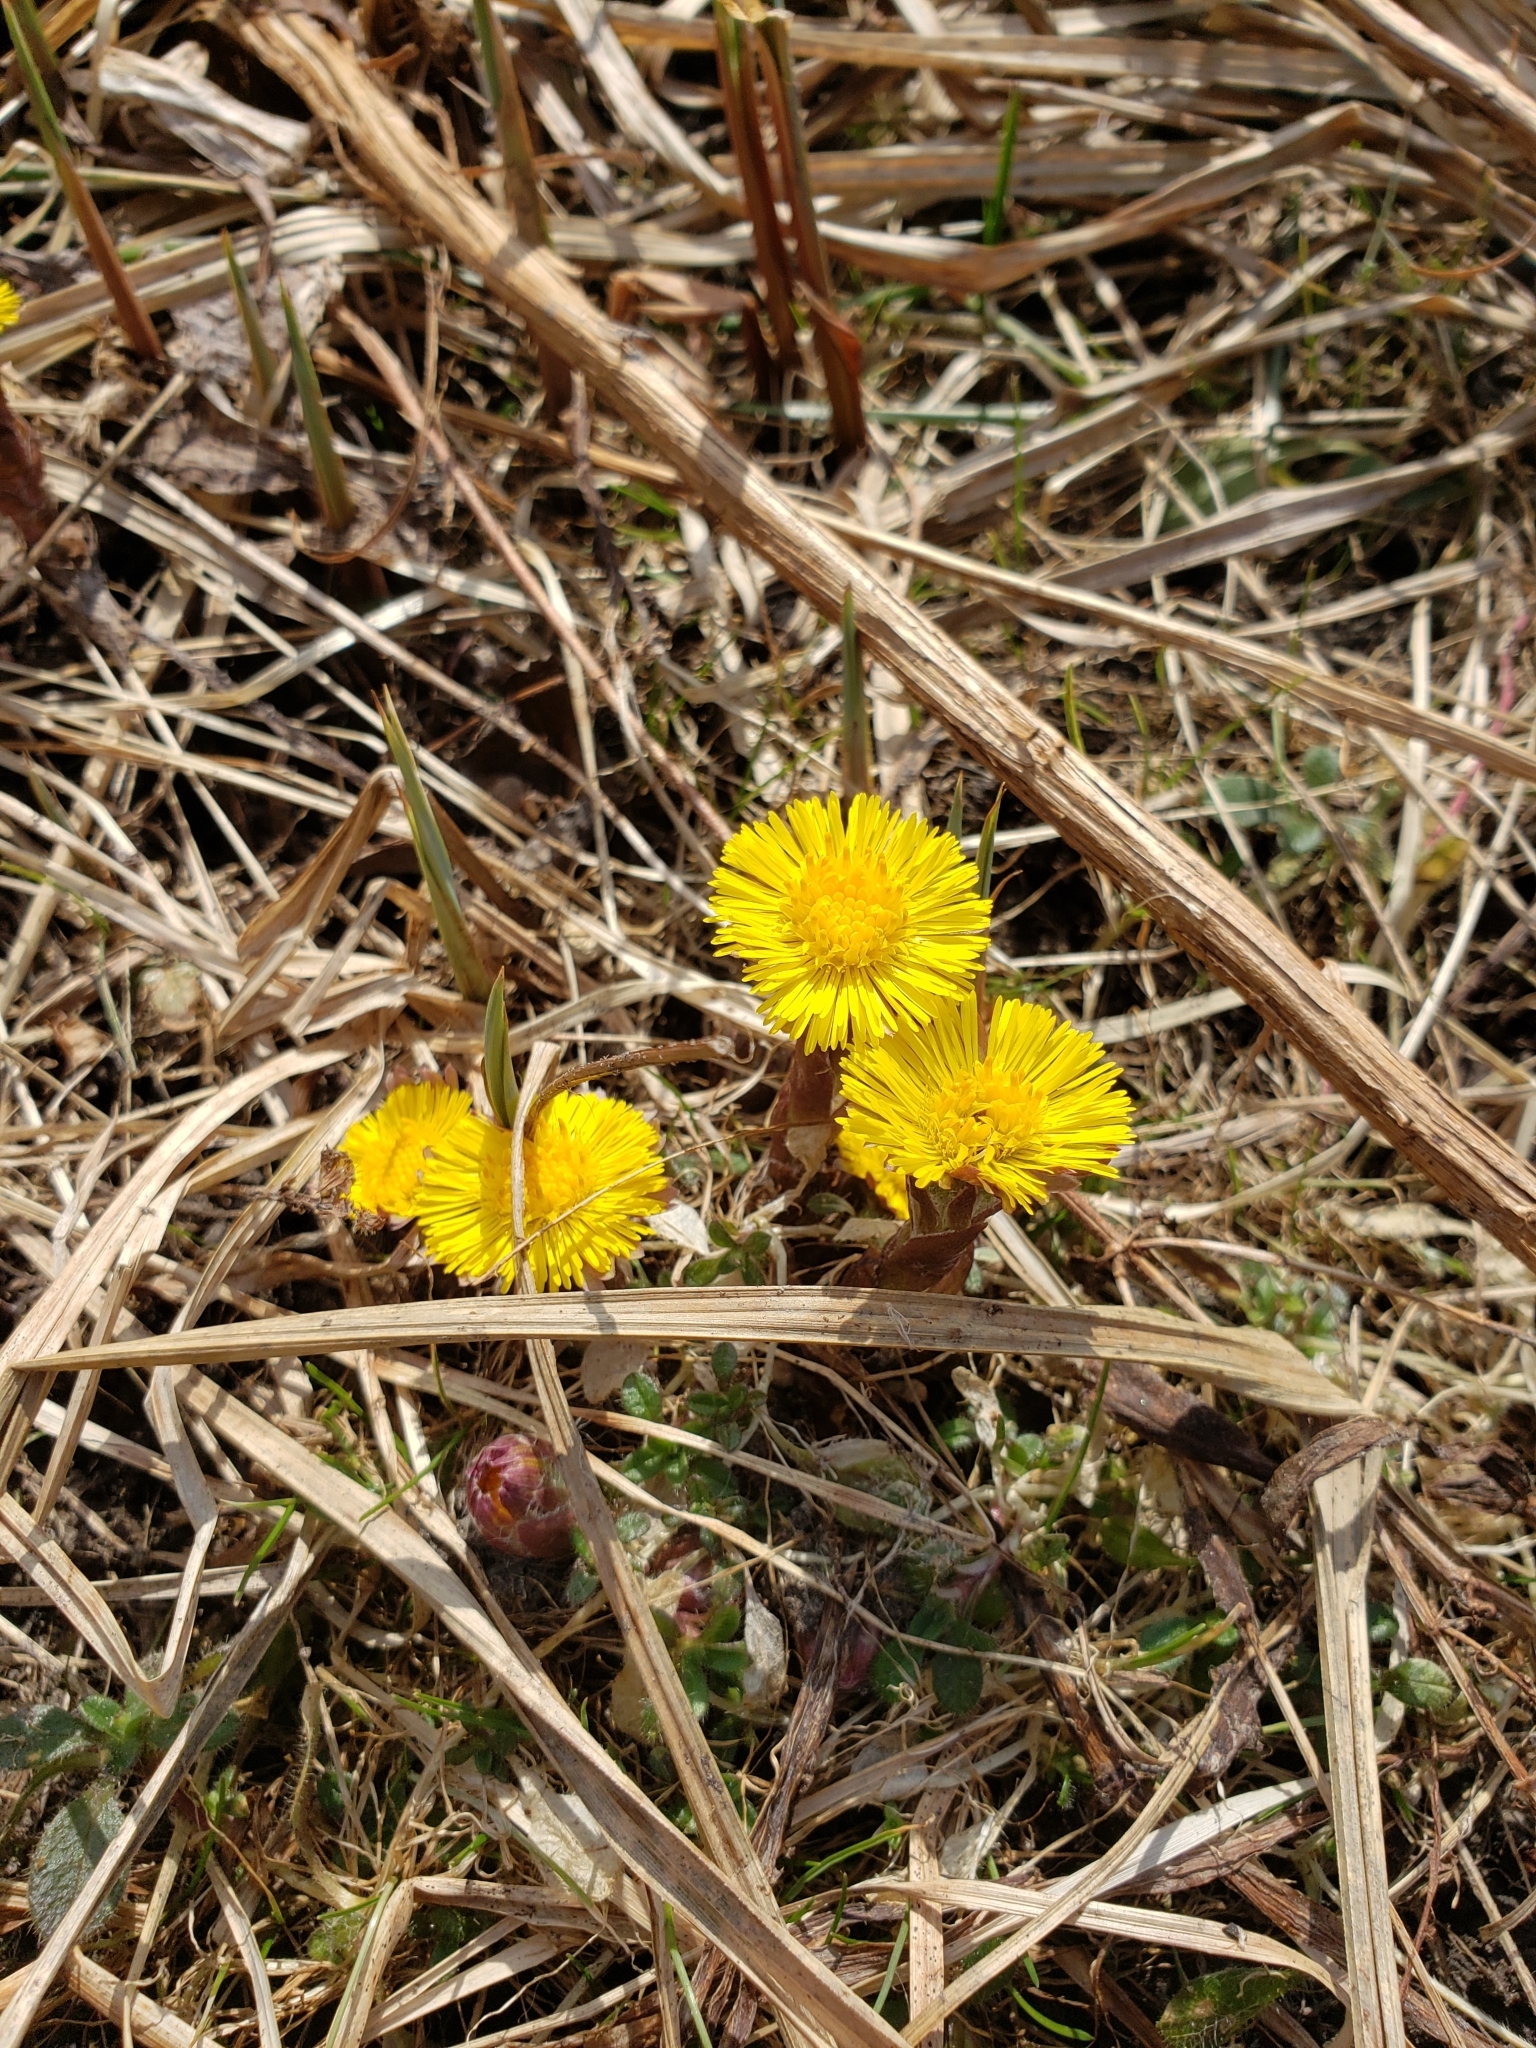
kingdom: Plantae
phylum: Tracheophyta
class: Magnoliopsida
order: Asterales
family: Asteraceae
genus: Tussilago
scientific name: Tussilago farfara
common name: Coltsfoot
